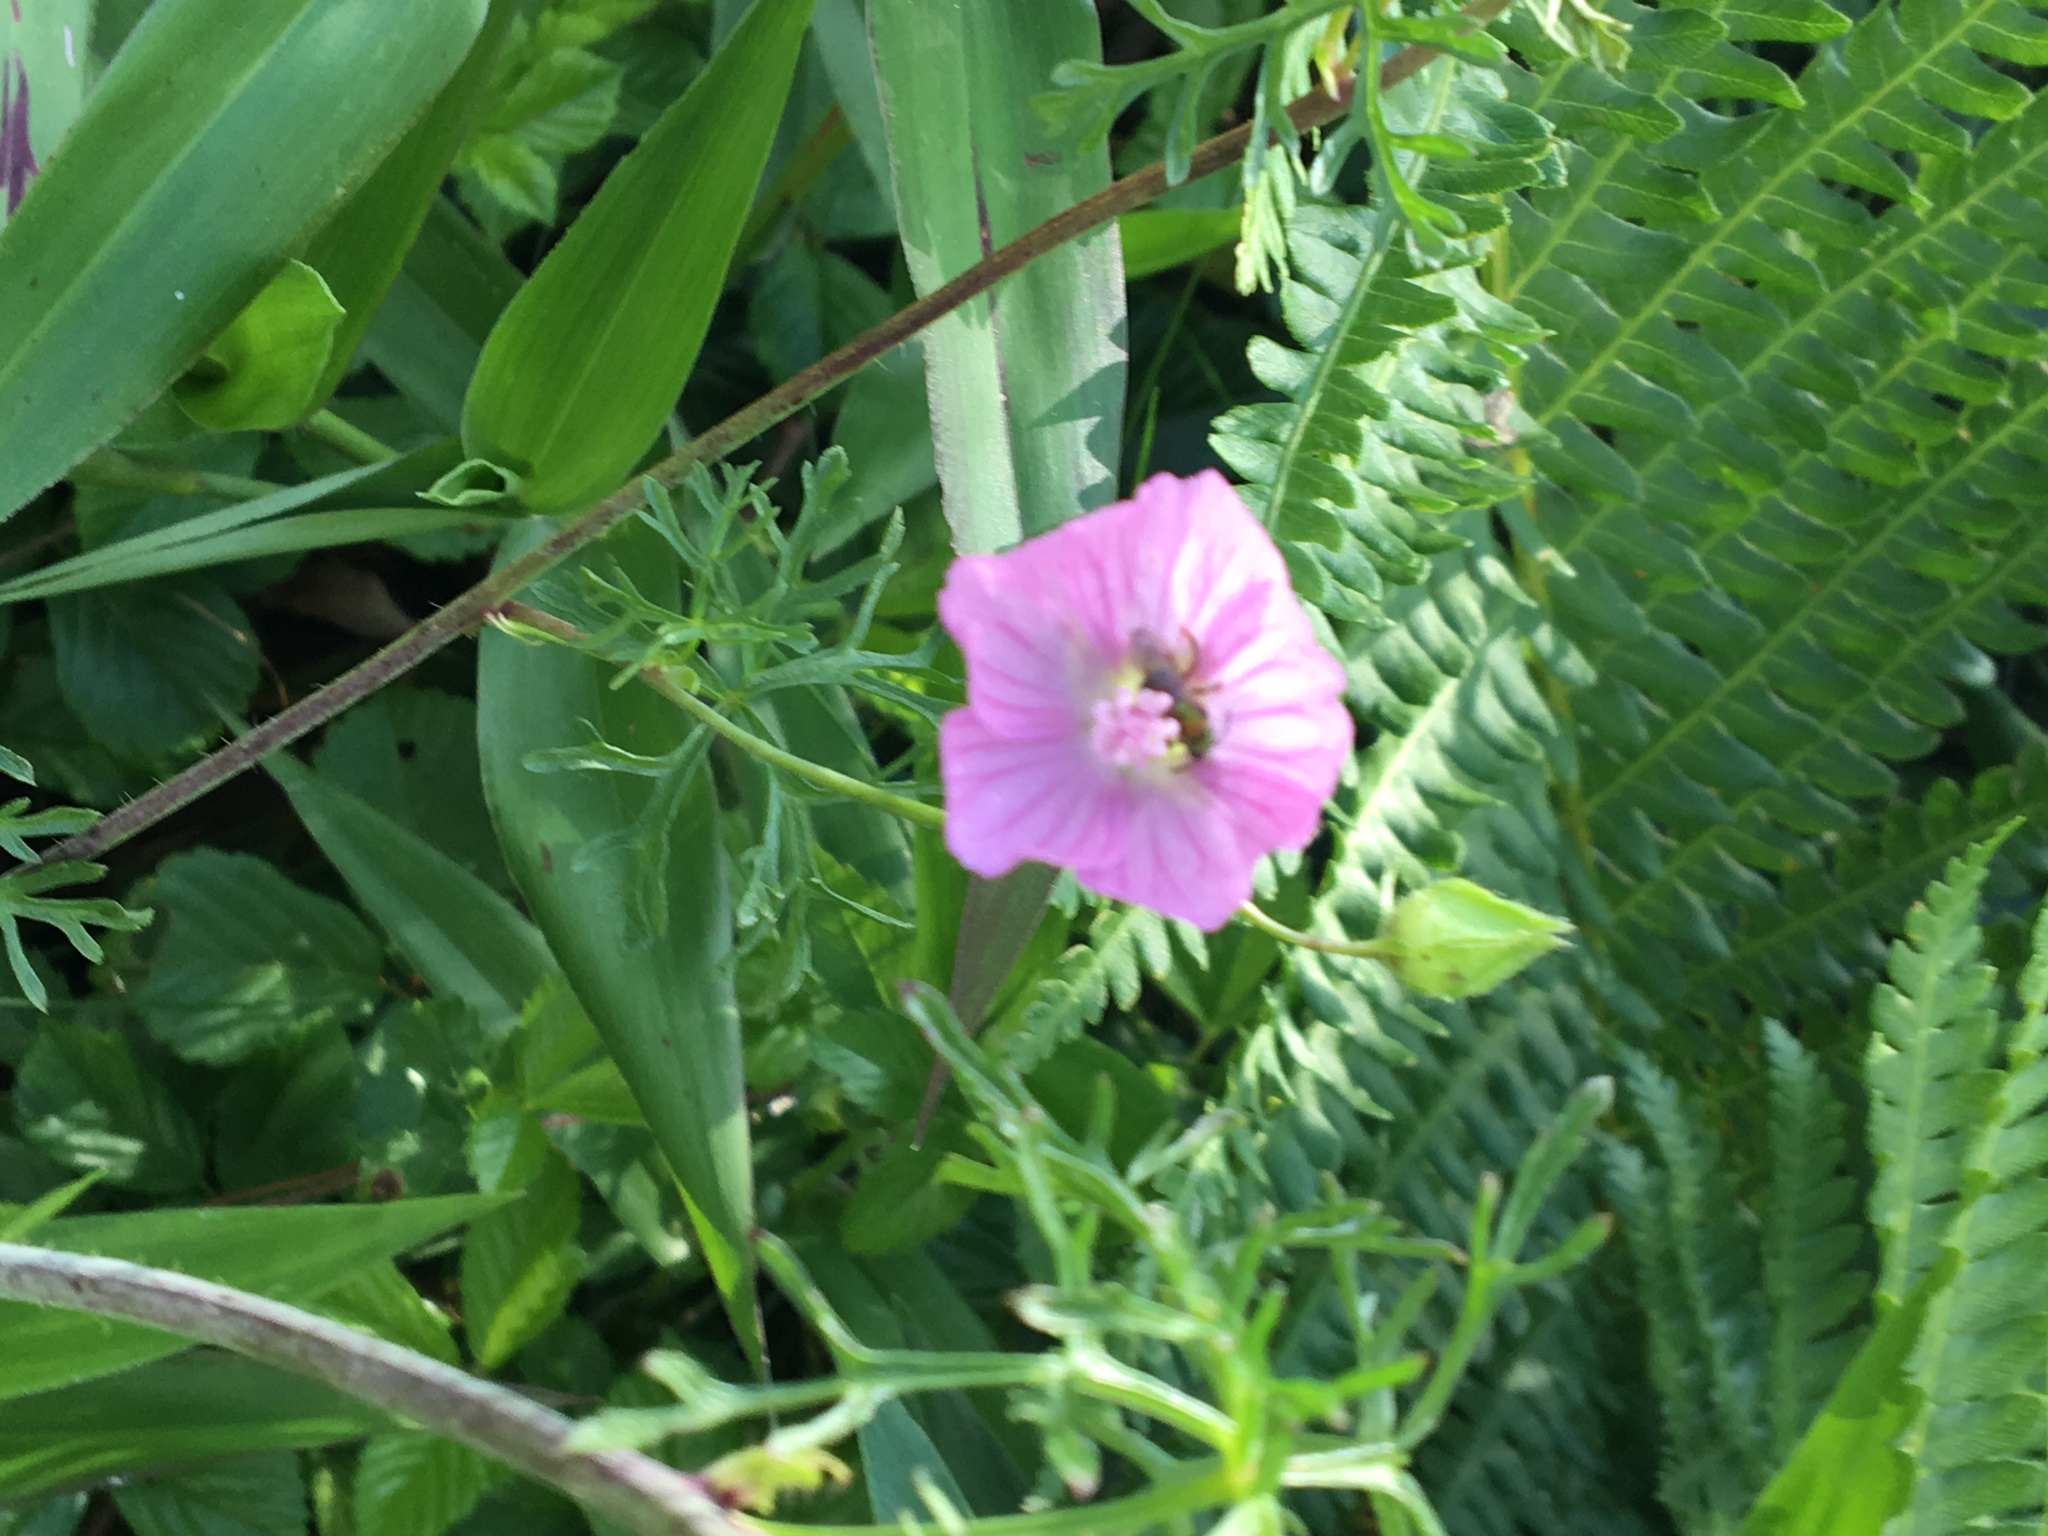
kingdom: Plantae
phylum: Tracheophyta
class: Magnoliopsida
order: Malvales
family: Malvaceae
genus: Malva
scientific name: Malva moschata
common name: Musk mallow
